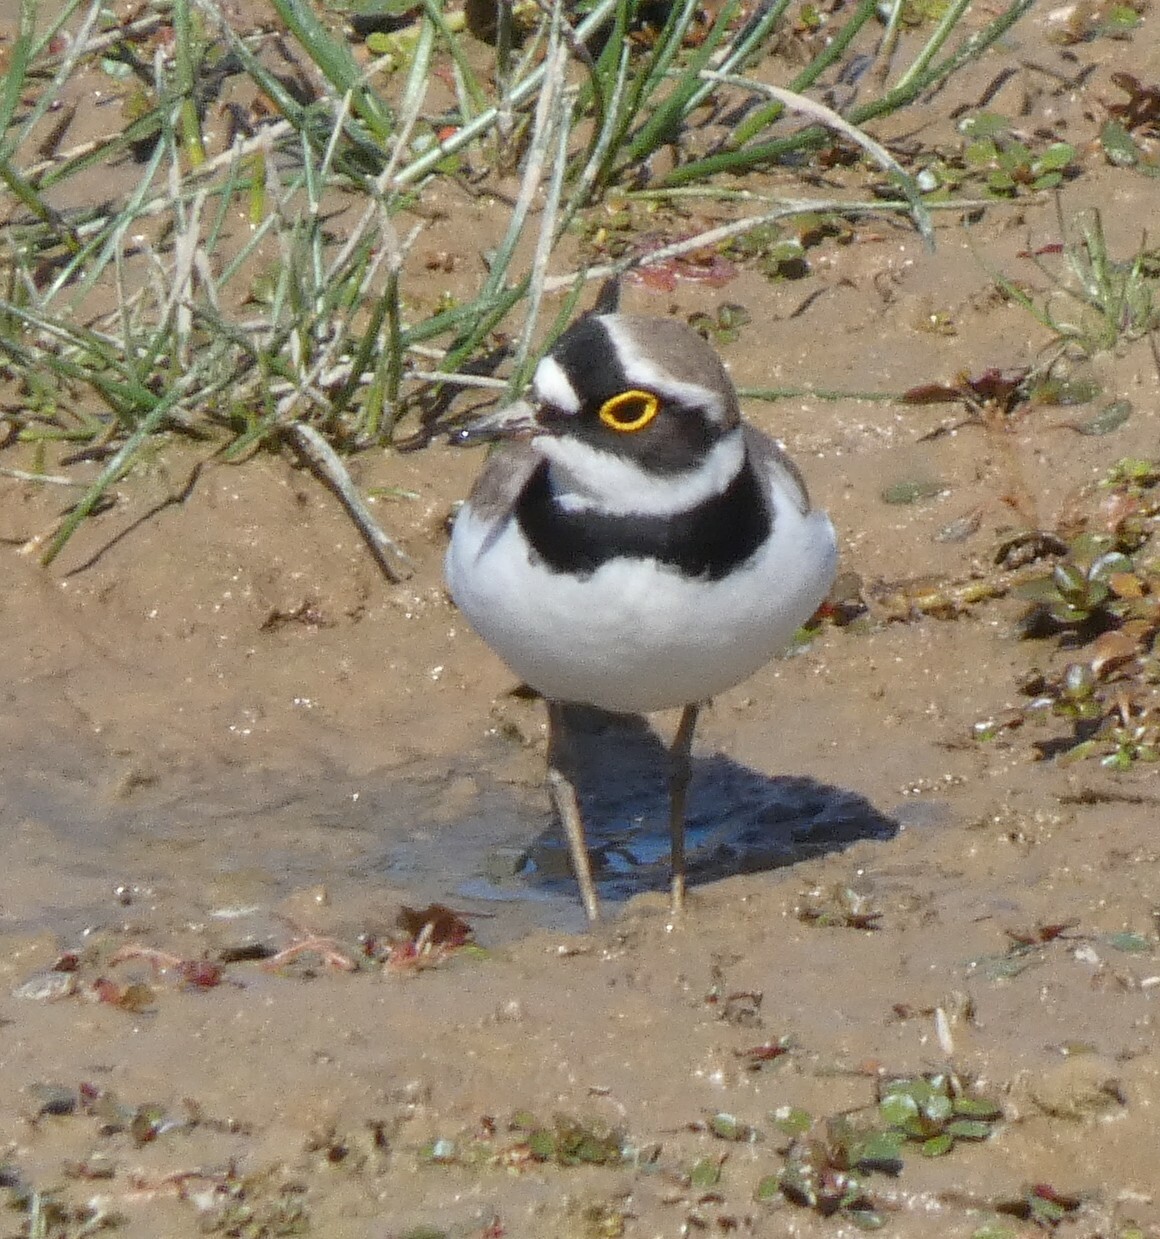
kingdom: Animalia
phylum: Chordata
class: Aves
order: Charadriiformes
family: Charadriidae
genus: Charadrius
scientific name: Charadrius dubius
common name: Little ringed plover
